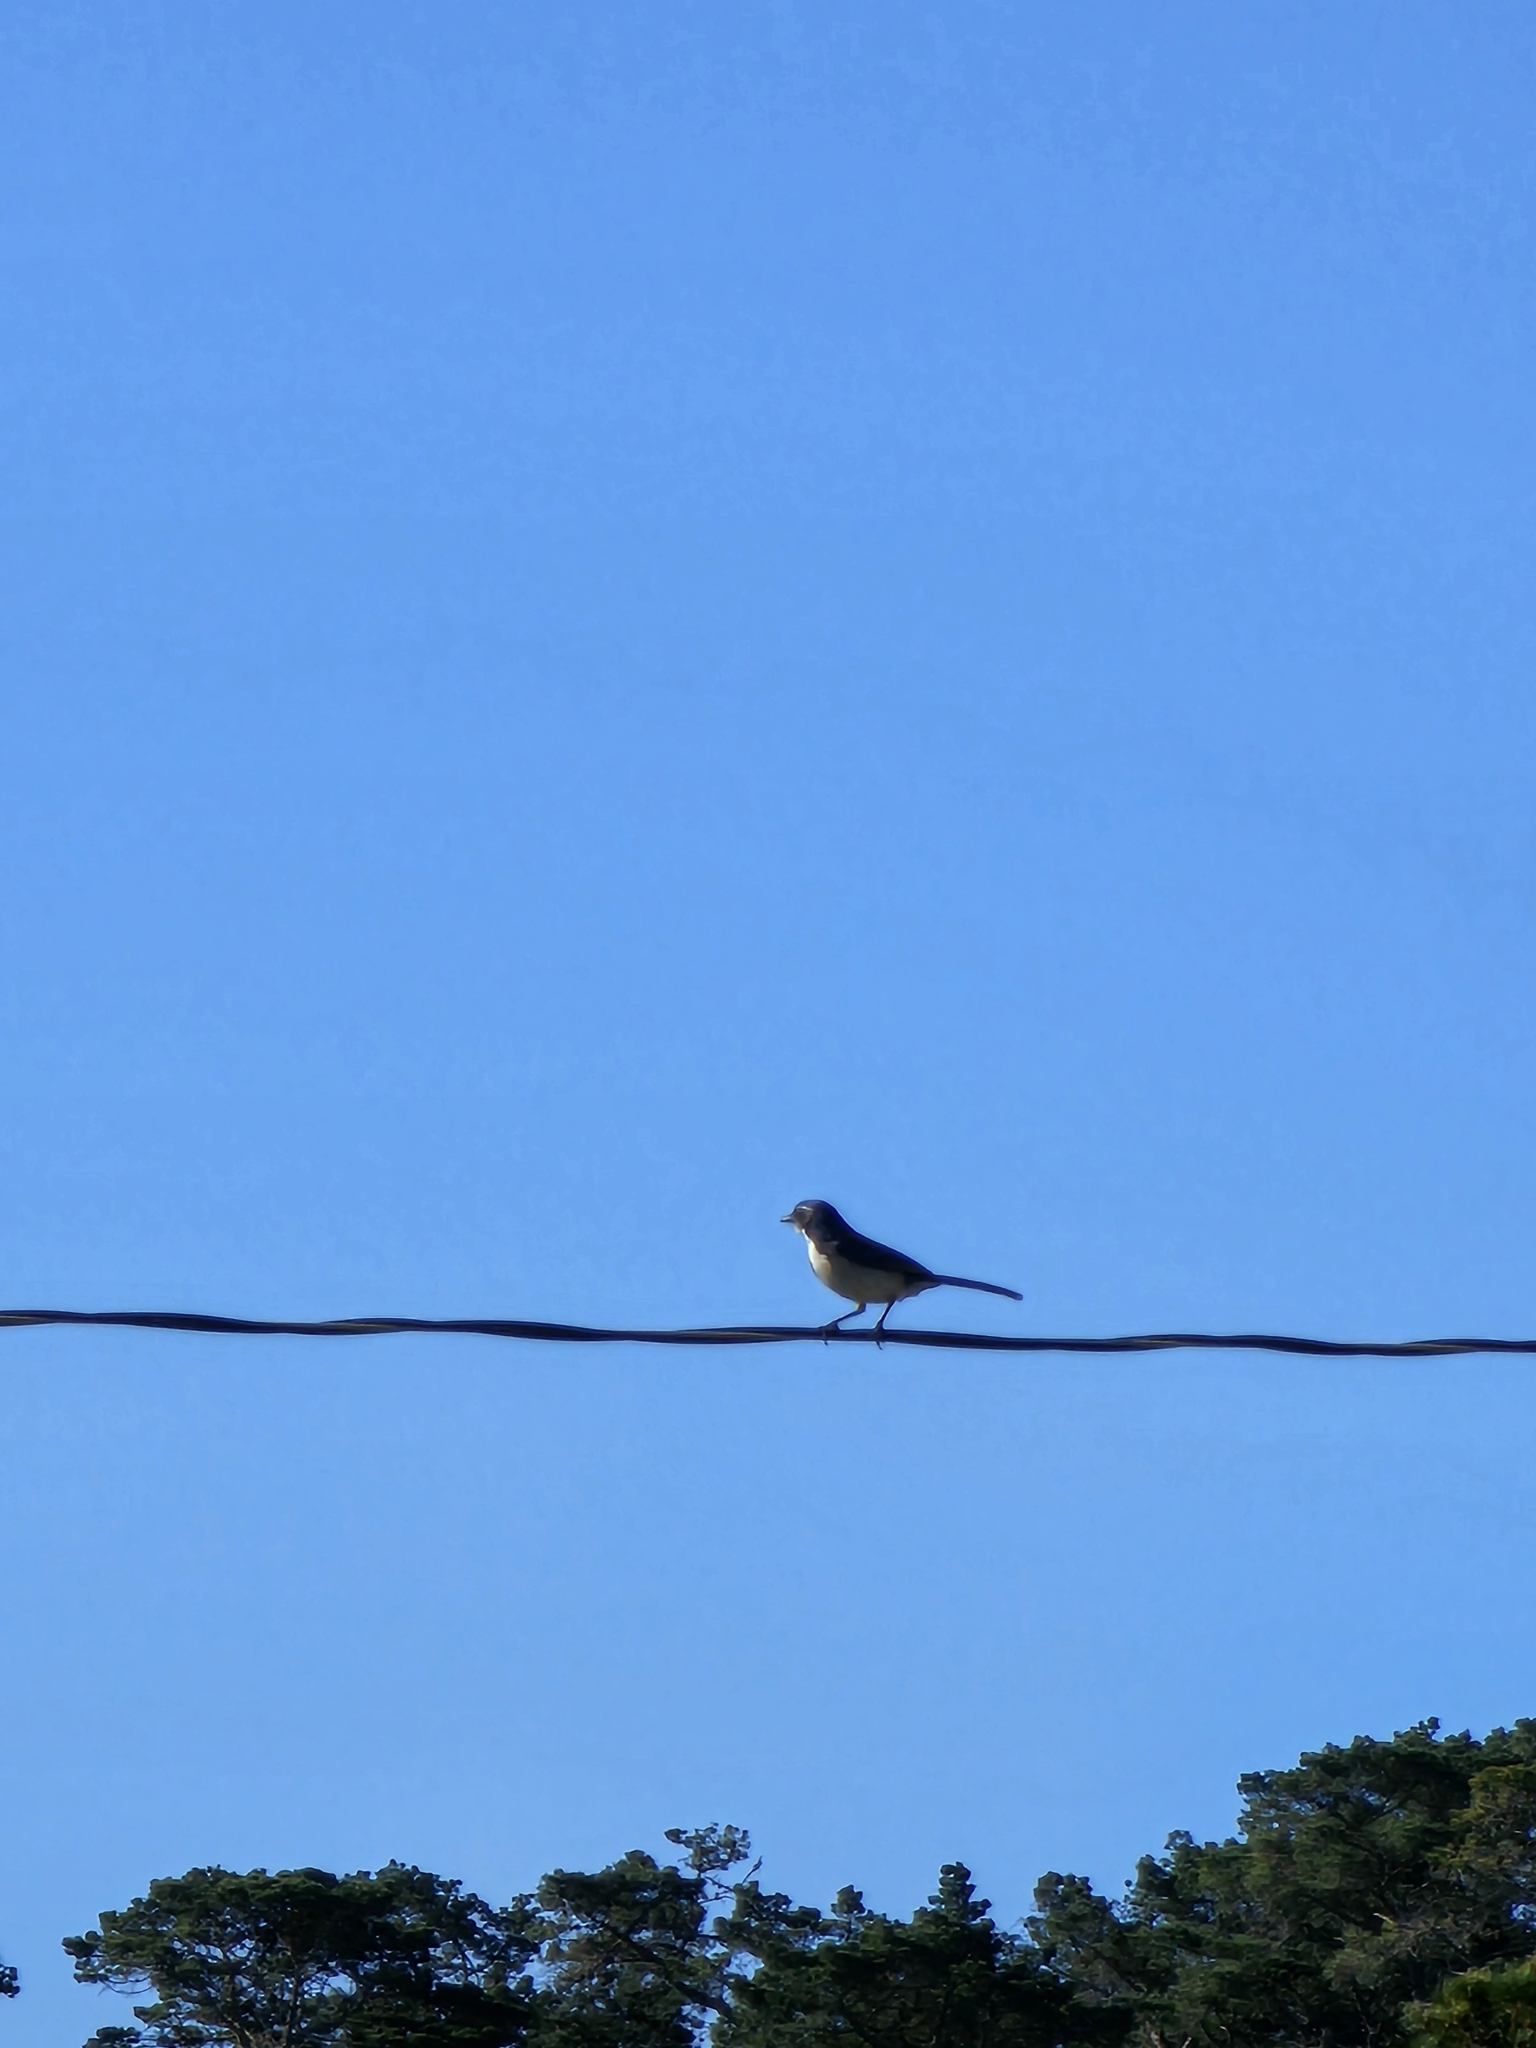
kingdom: Animalia
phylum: Chordata
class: Aves
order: Passeriformes
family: Corvidae
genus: Aphelocoma
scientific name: Aphelocoma californica
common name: California scrub-jay
